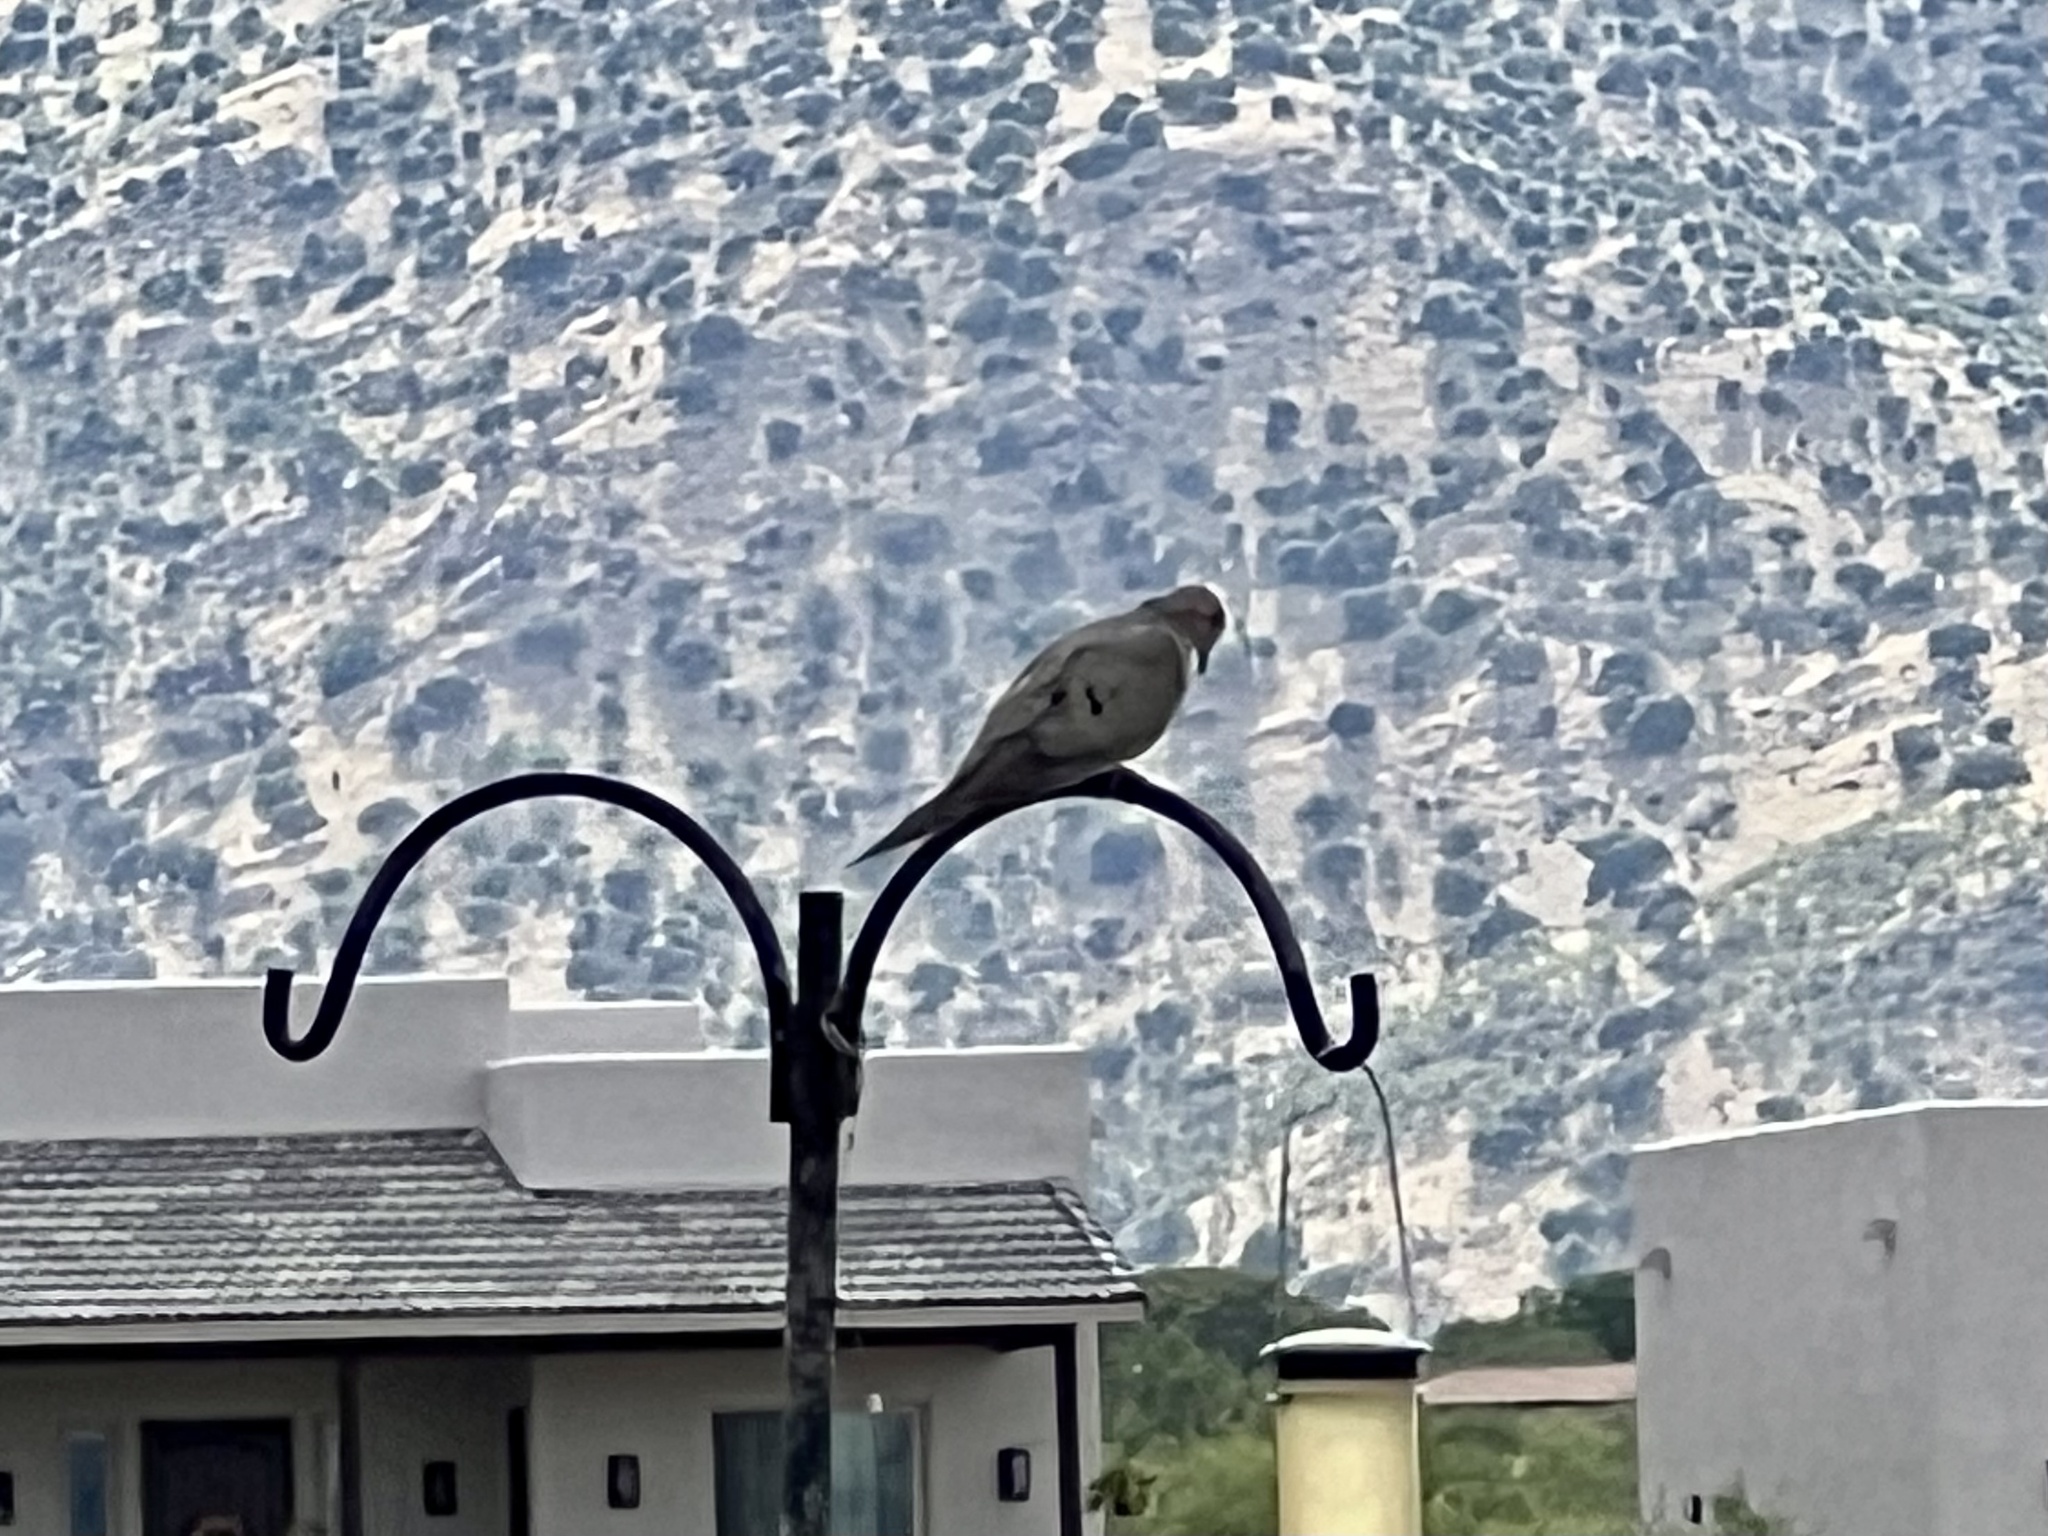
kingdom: Animalia
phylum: Chordata
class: Aves
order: Columbiformes
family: Columbidae
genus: Zenaida
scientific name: Zenaida macroura
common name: Mourning dove
